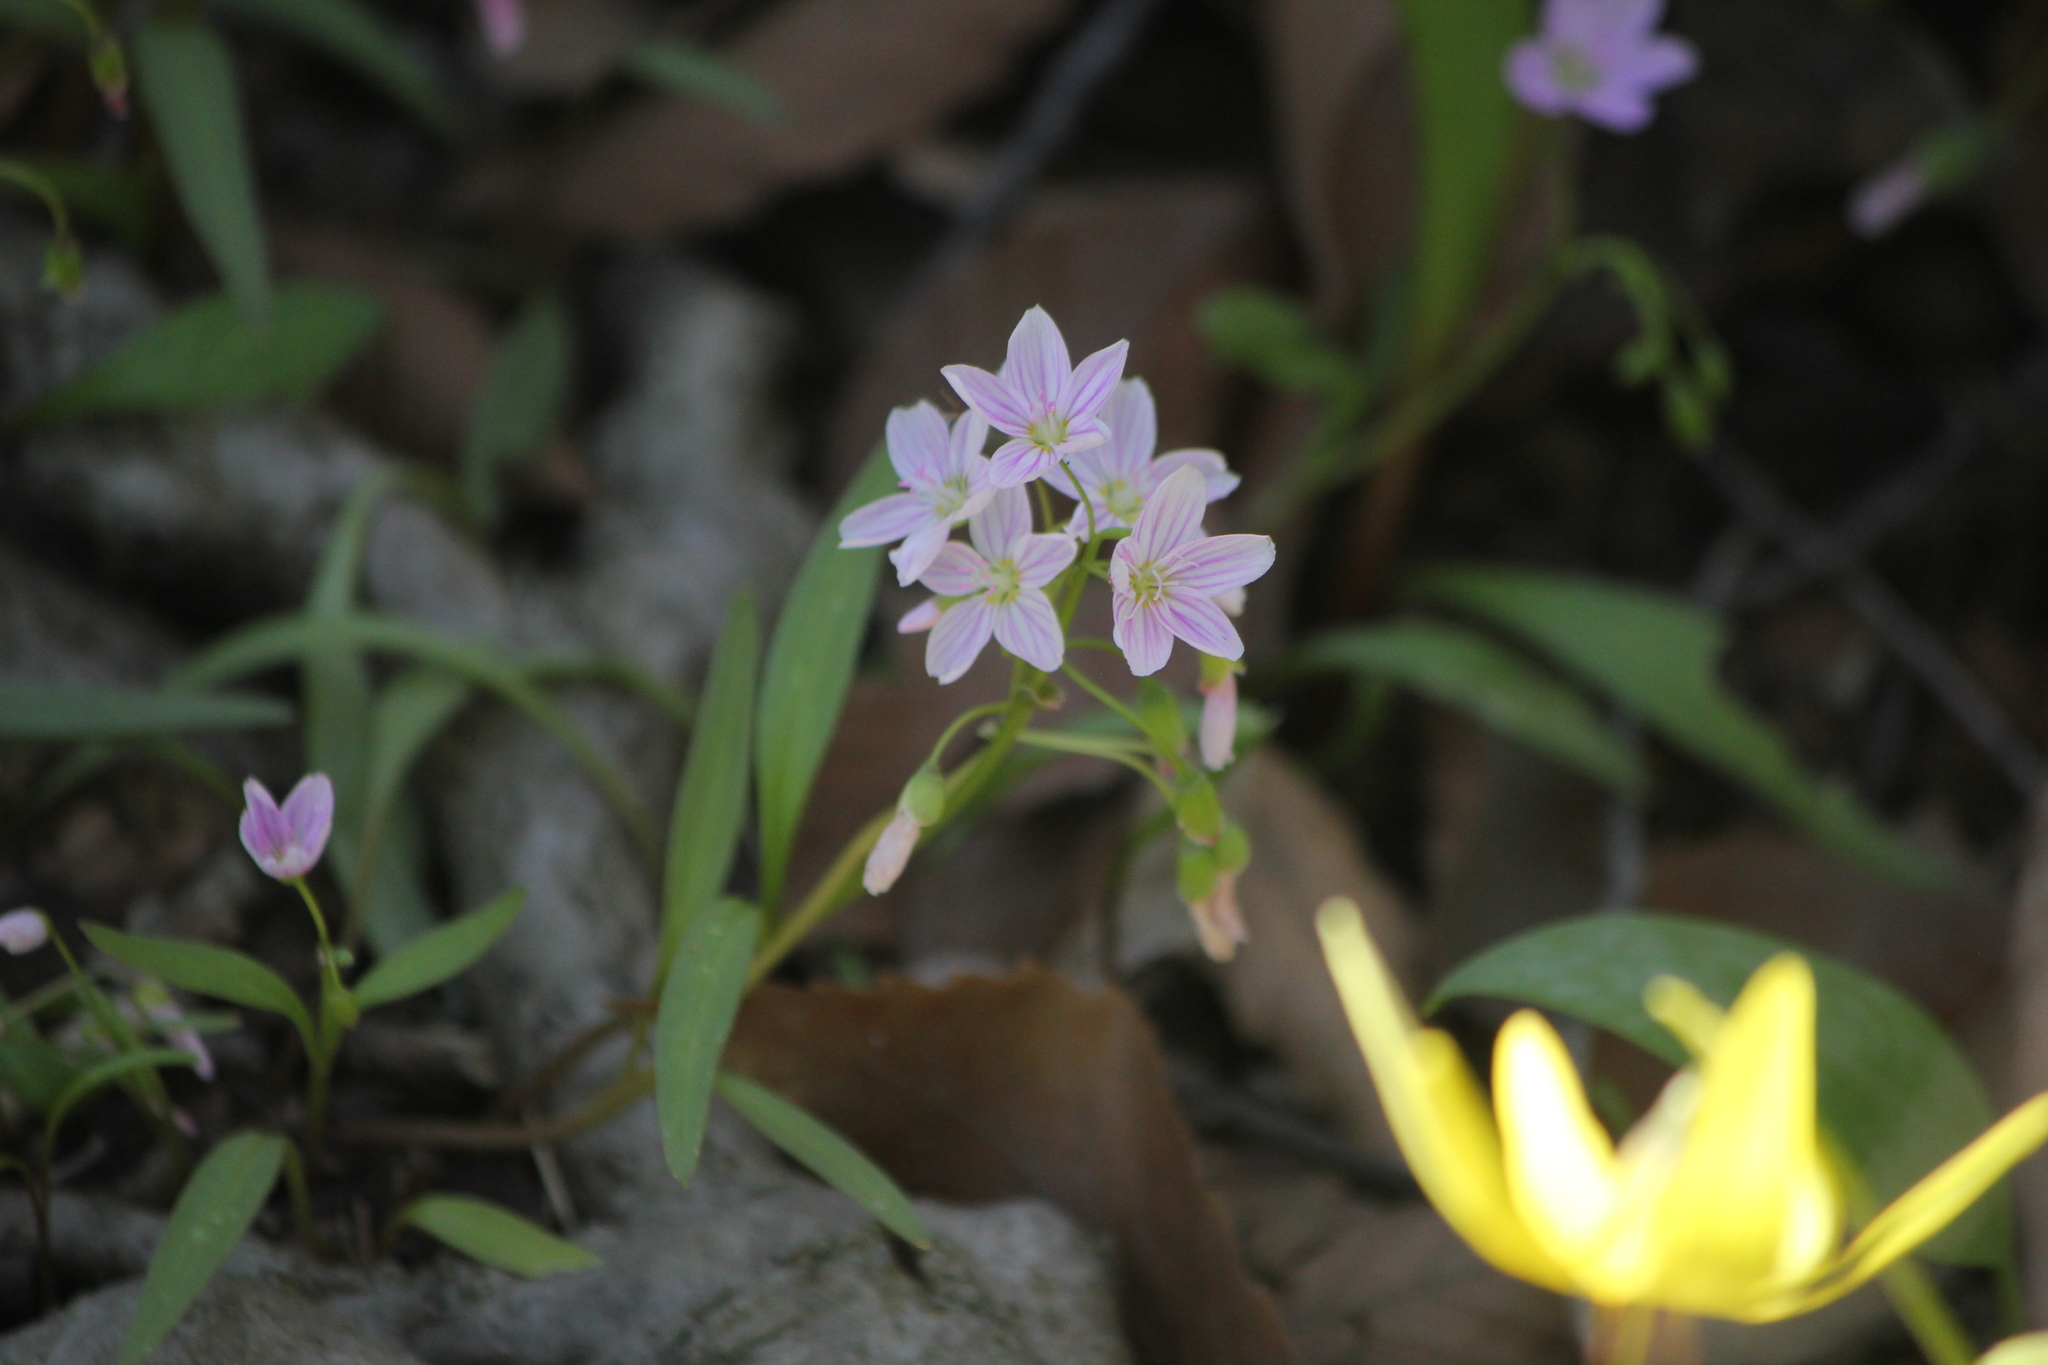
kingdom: Plantae
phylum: Tracheophyta
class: Magnoliopsida
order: Caryophyllales
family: Montiaceae
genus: Claytonia
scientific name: Claytonia virginica
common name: Virginia springbeauty
